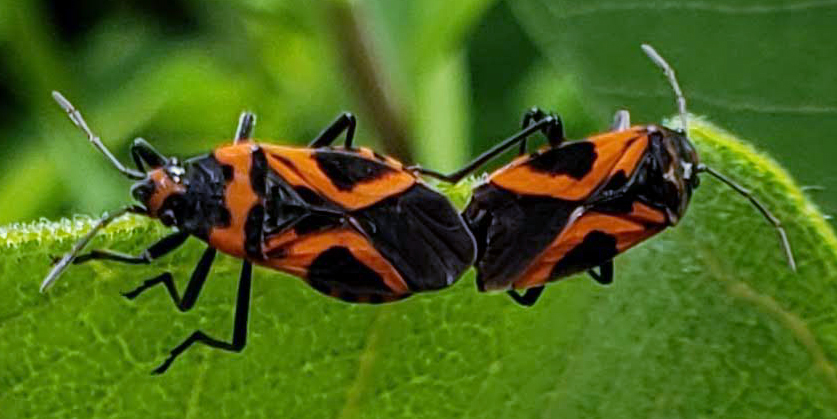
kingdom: Animalia
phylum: Arthropoda
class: Insecta
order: Hemiptera
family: Lygaeidae
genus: Lygaeus
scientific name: Lygaeus turcicus
